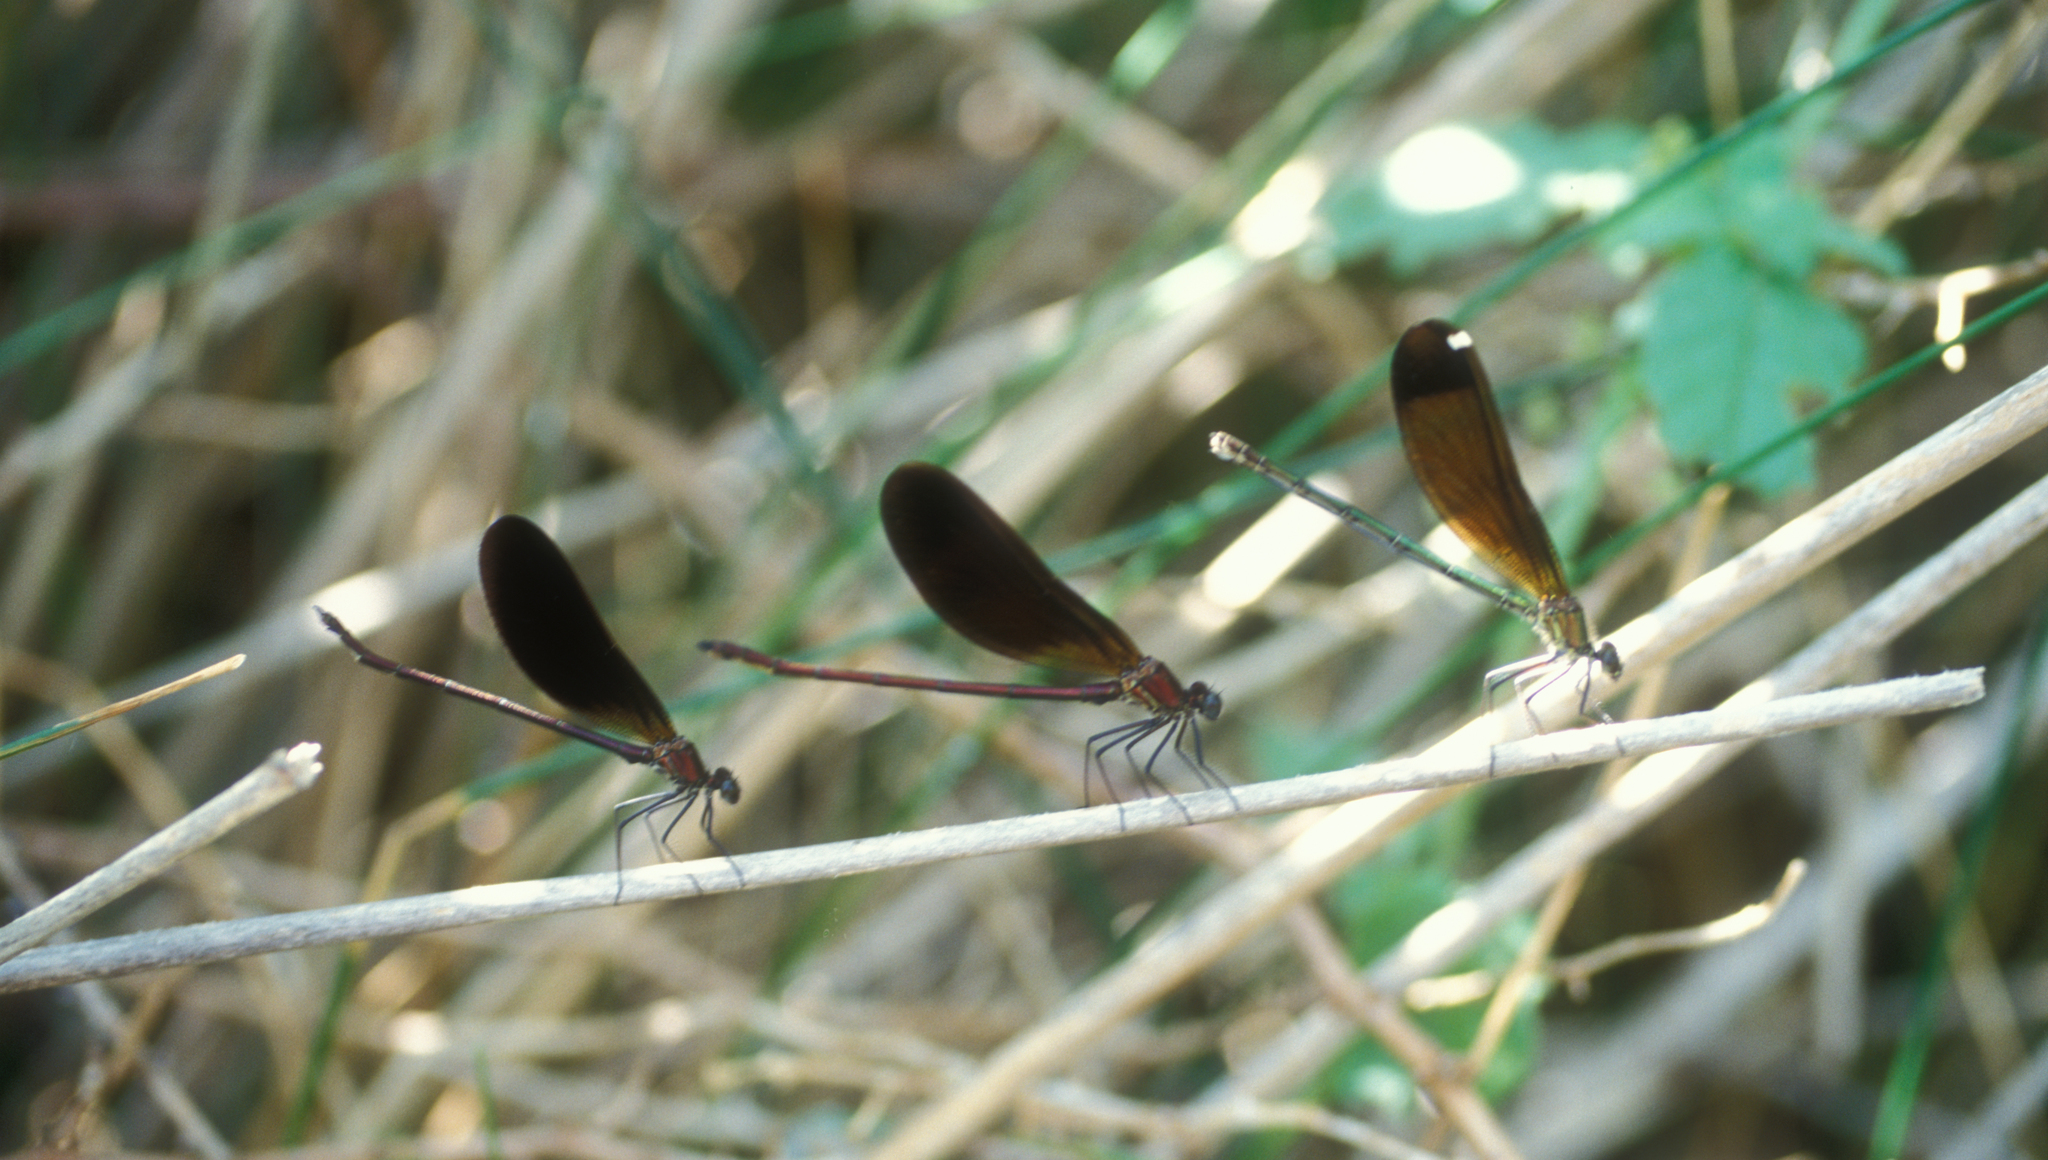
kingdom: Animalia
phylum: Arthropoda
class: Insecta
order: Odonata
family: Calopterygidae
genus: Calopteryx
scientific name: Calopteryx haemorrhoidalis
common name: Copper demoiselle
